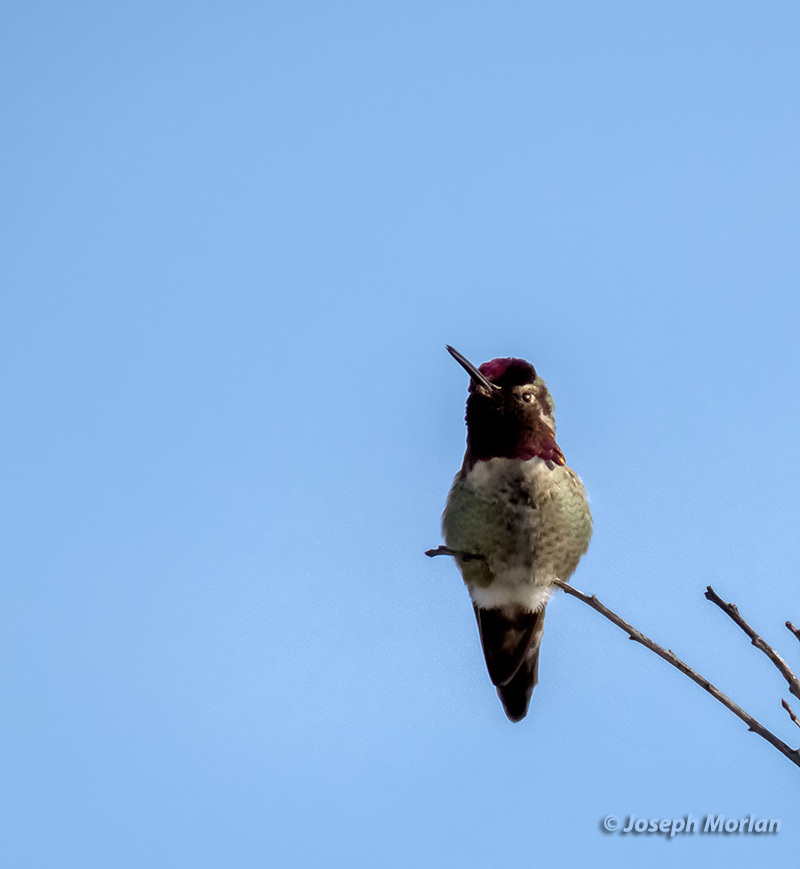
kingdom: Animalia
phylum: Chordata
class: Aves
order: Apodiformes
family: Trochilidae
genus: Calypte
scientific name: Calypte anna
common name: Anna's hummingbird
